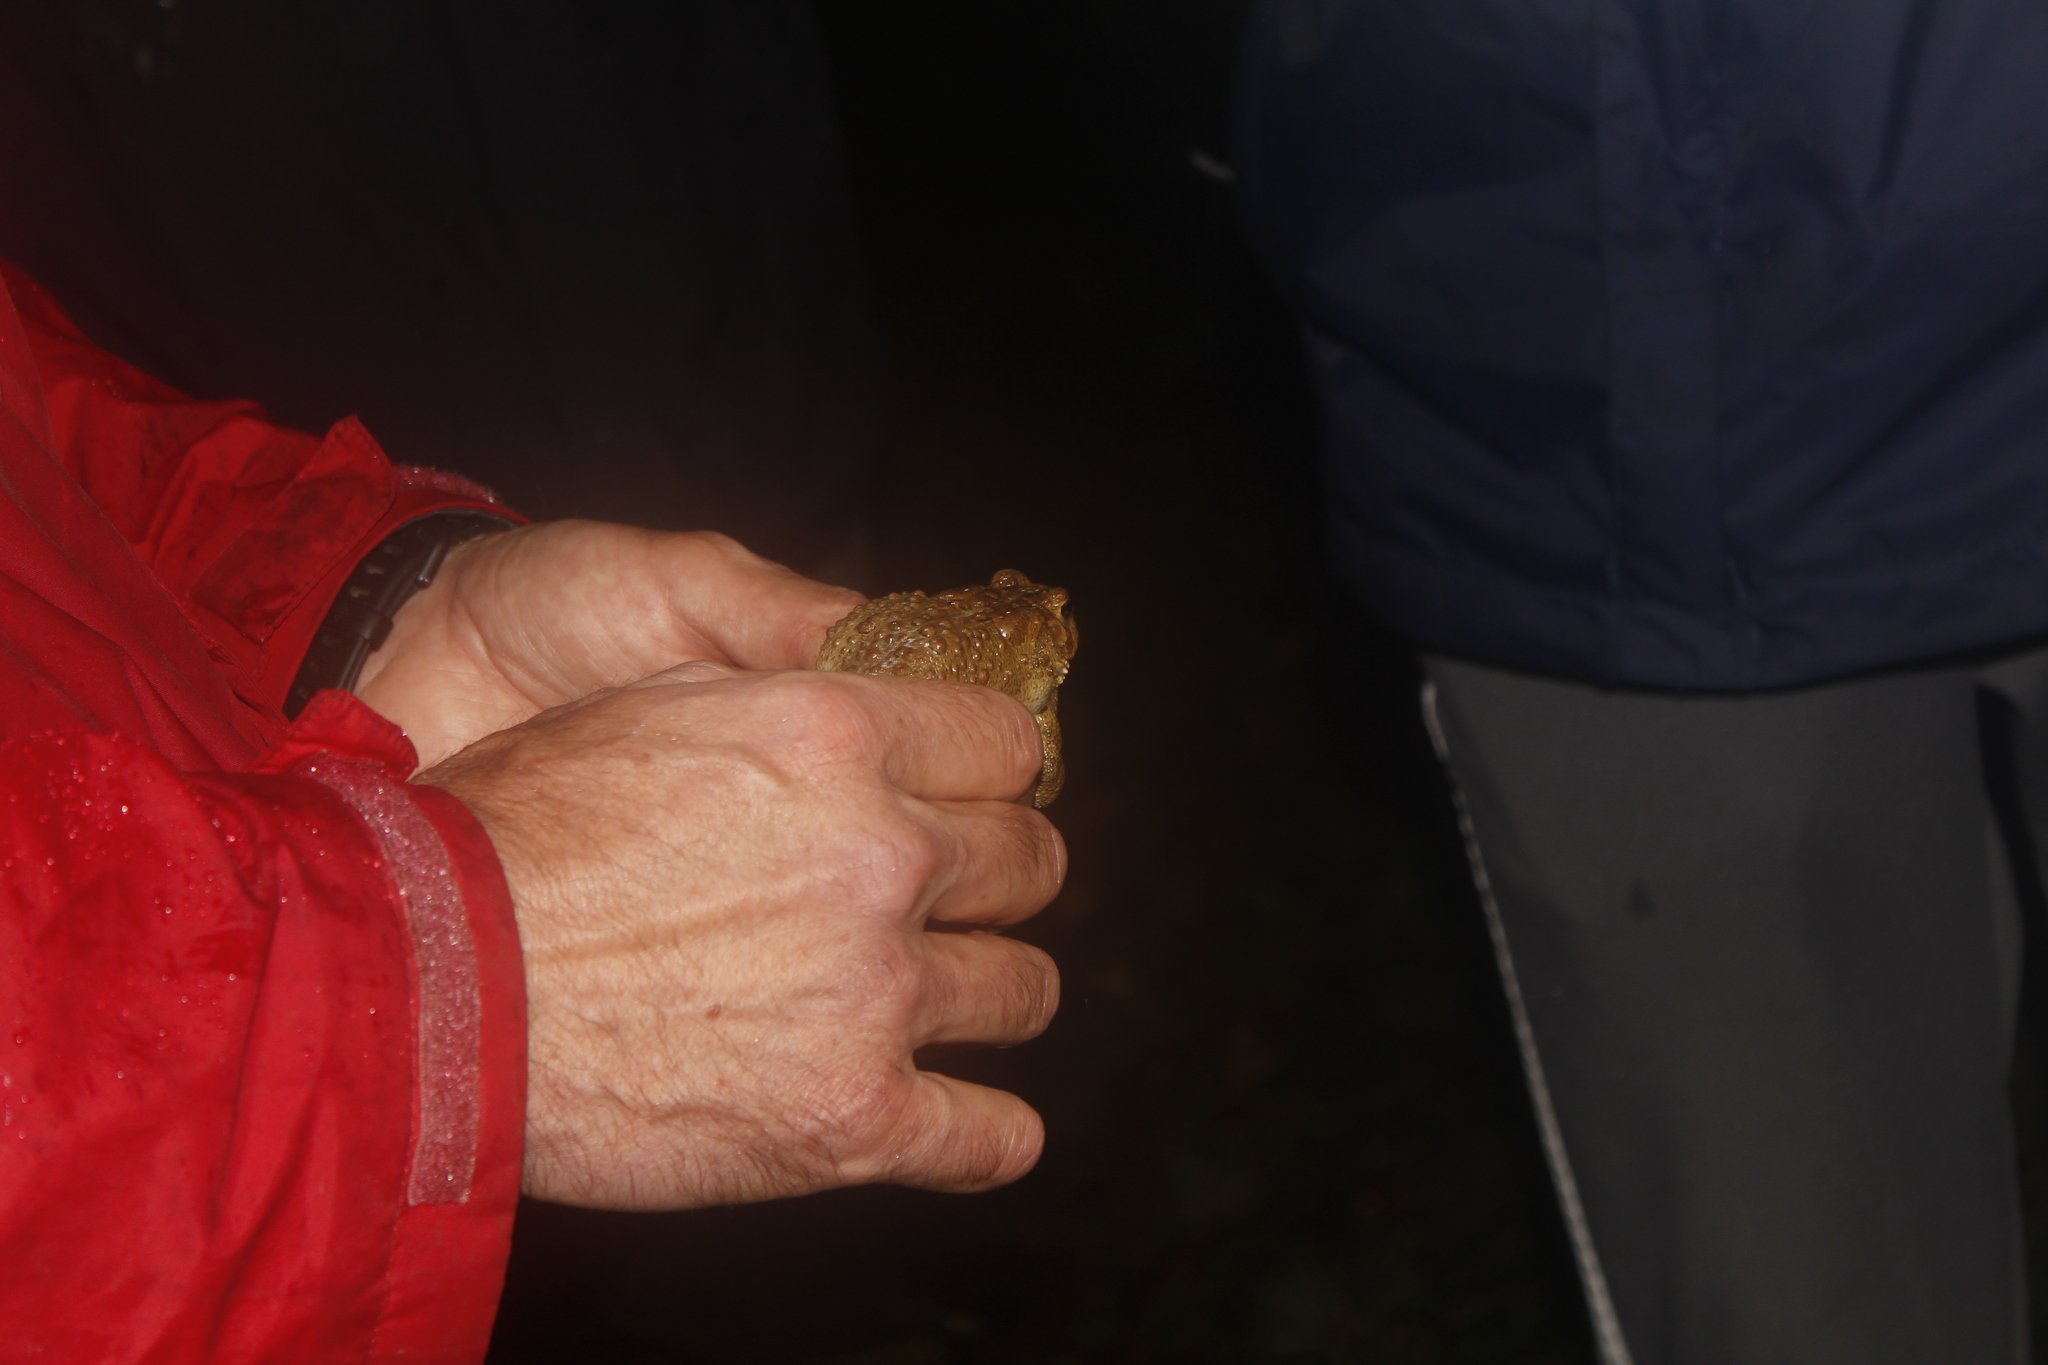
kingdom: Animalia
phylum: Chordata
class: Amphibia
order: Anura
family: Bufonidae
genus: Anaxyrus
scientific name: Anaxyrus americanus
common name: American toad
